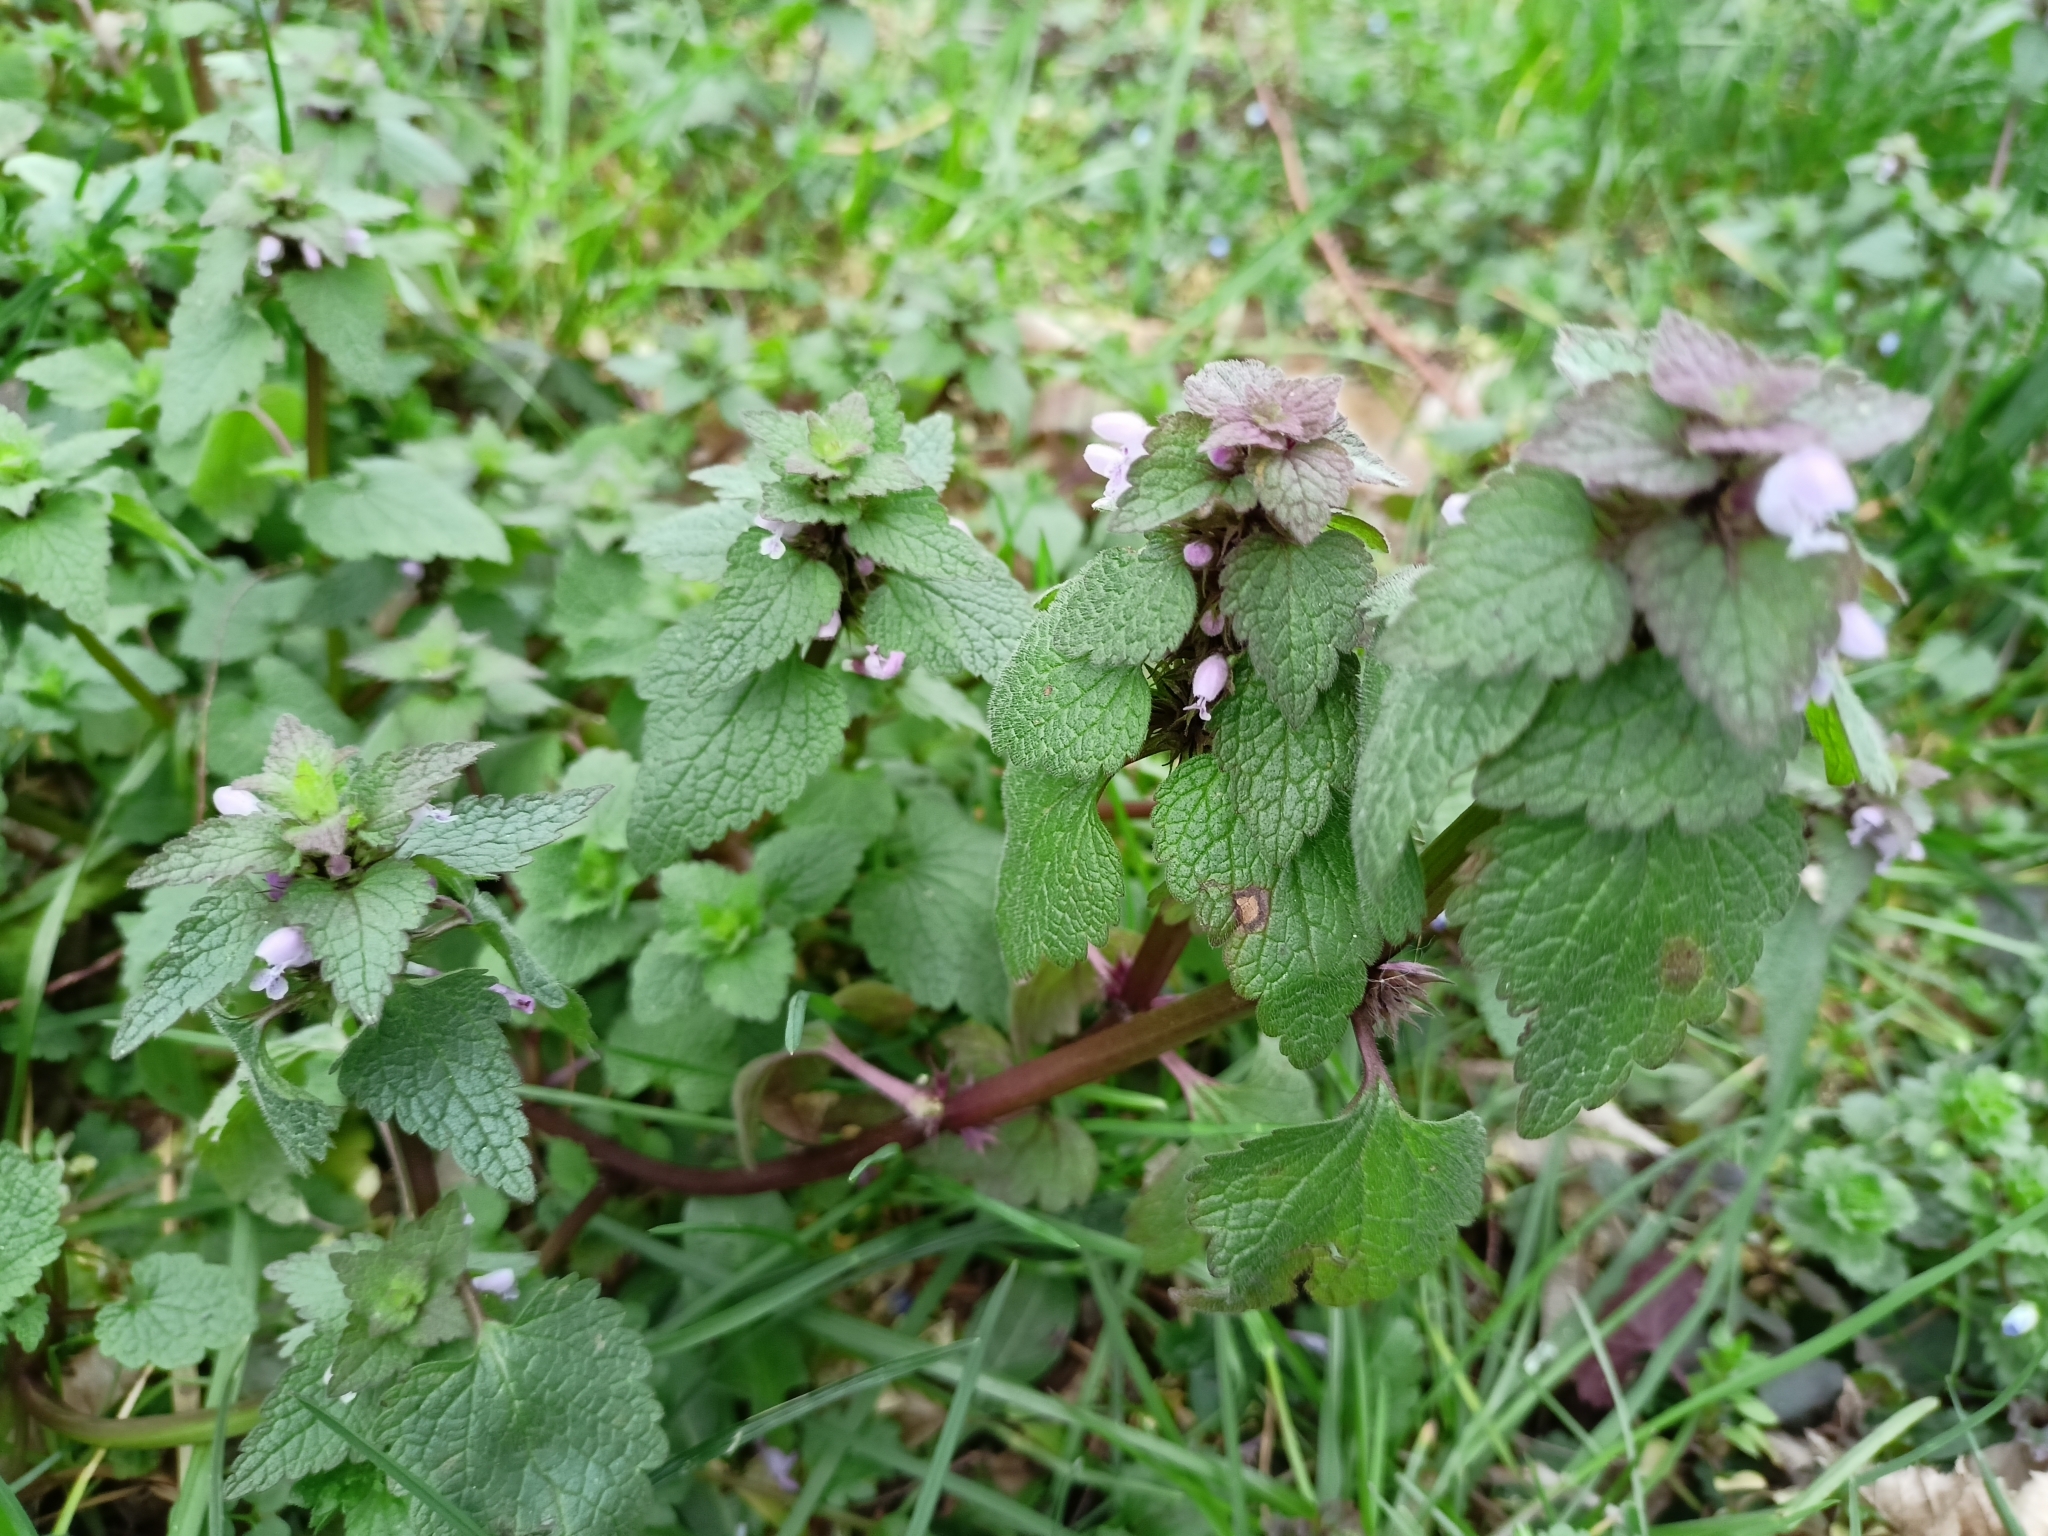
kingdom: Plantae
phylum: Tracheophyta
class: Magnoliopsida
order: Lamiales
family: Lamiaceae
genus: Lamium
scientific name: Lamium purpureum
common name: Red dead-nettle
